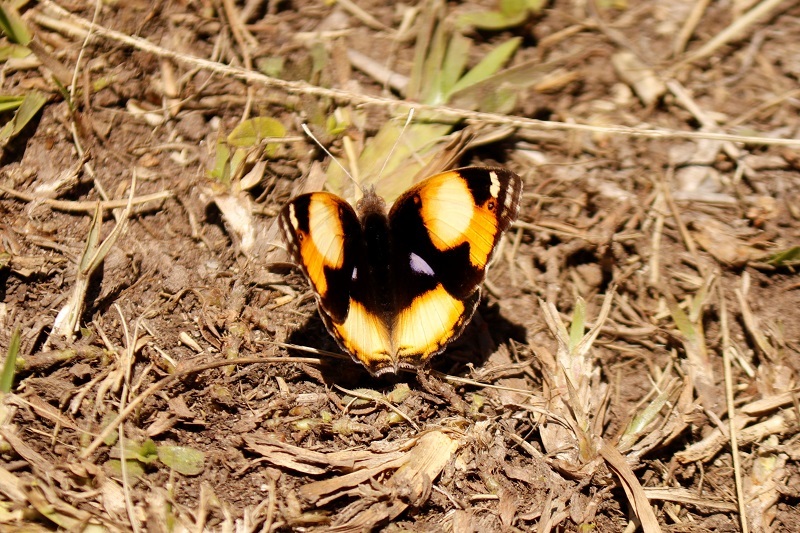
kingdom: Animalia
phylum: Arthropoda
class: Insecta
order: Lepidoptera
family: Nymphalidae
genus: Junonia
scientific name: Junonia hierta
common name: Yellow pansy
